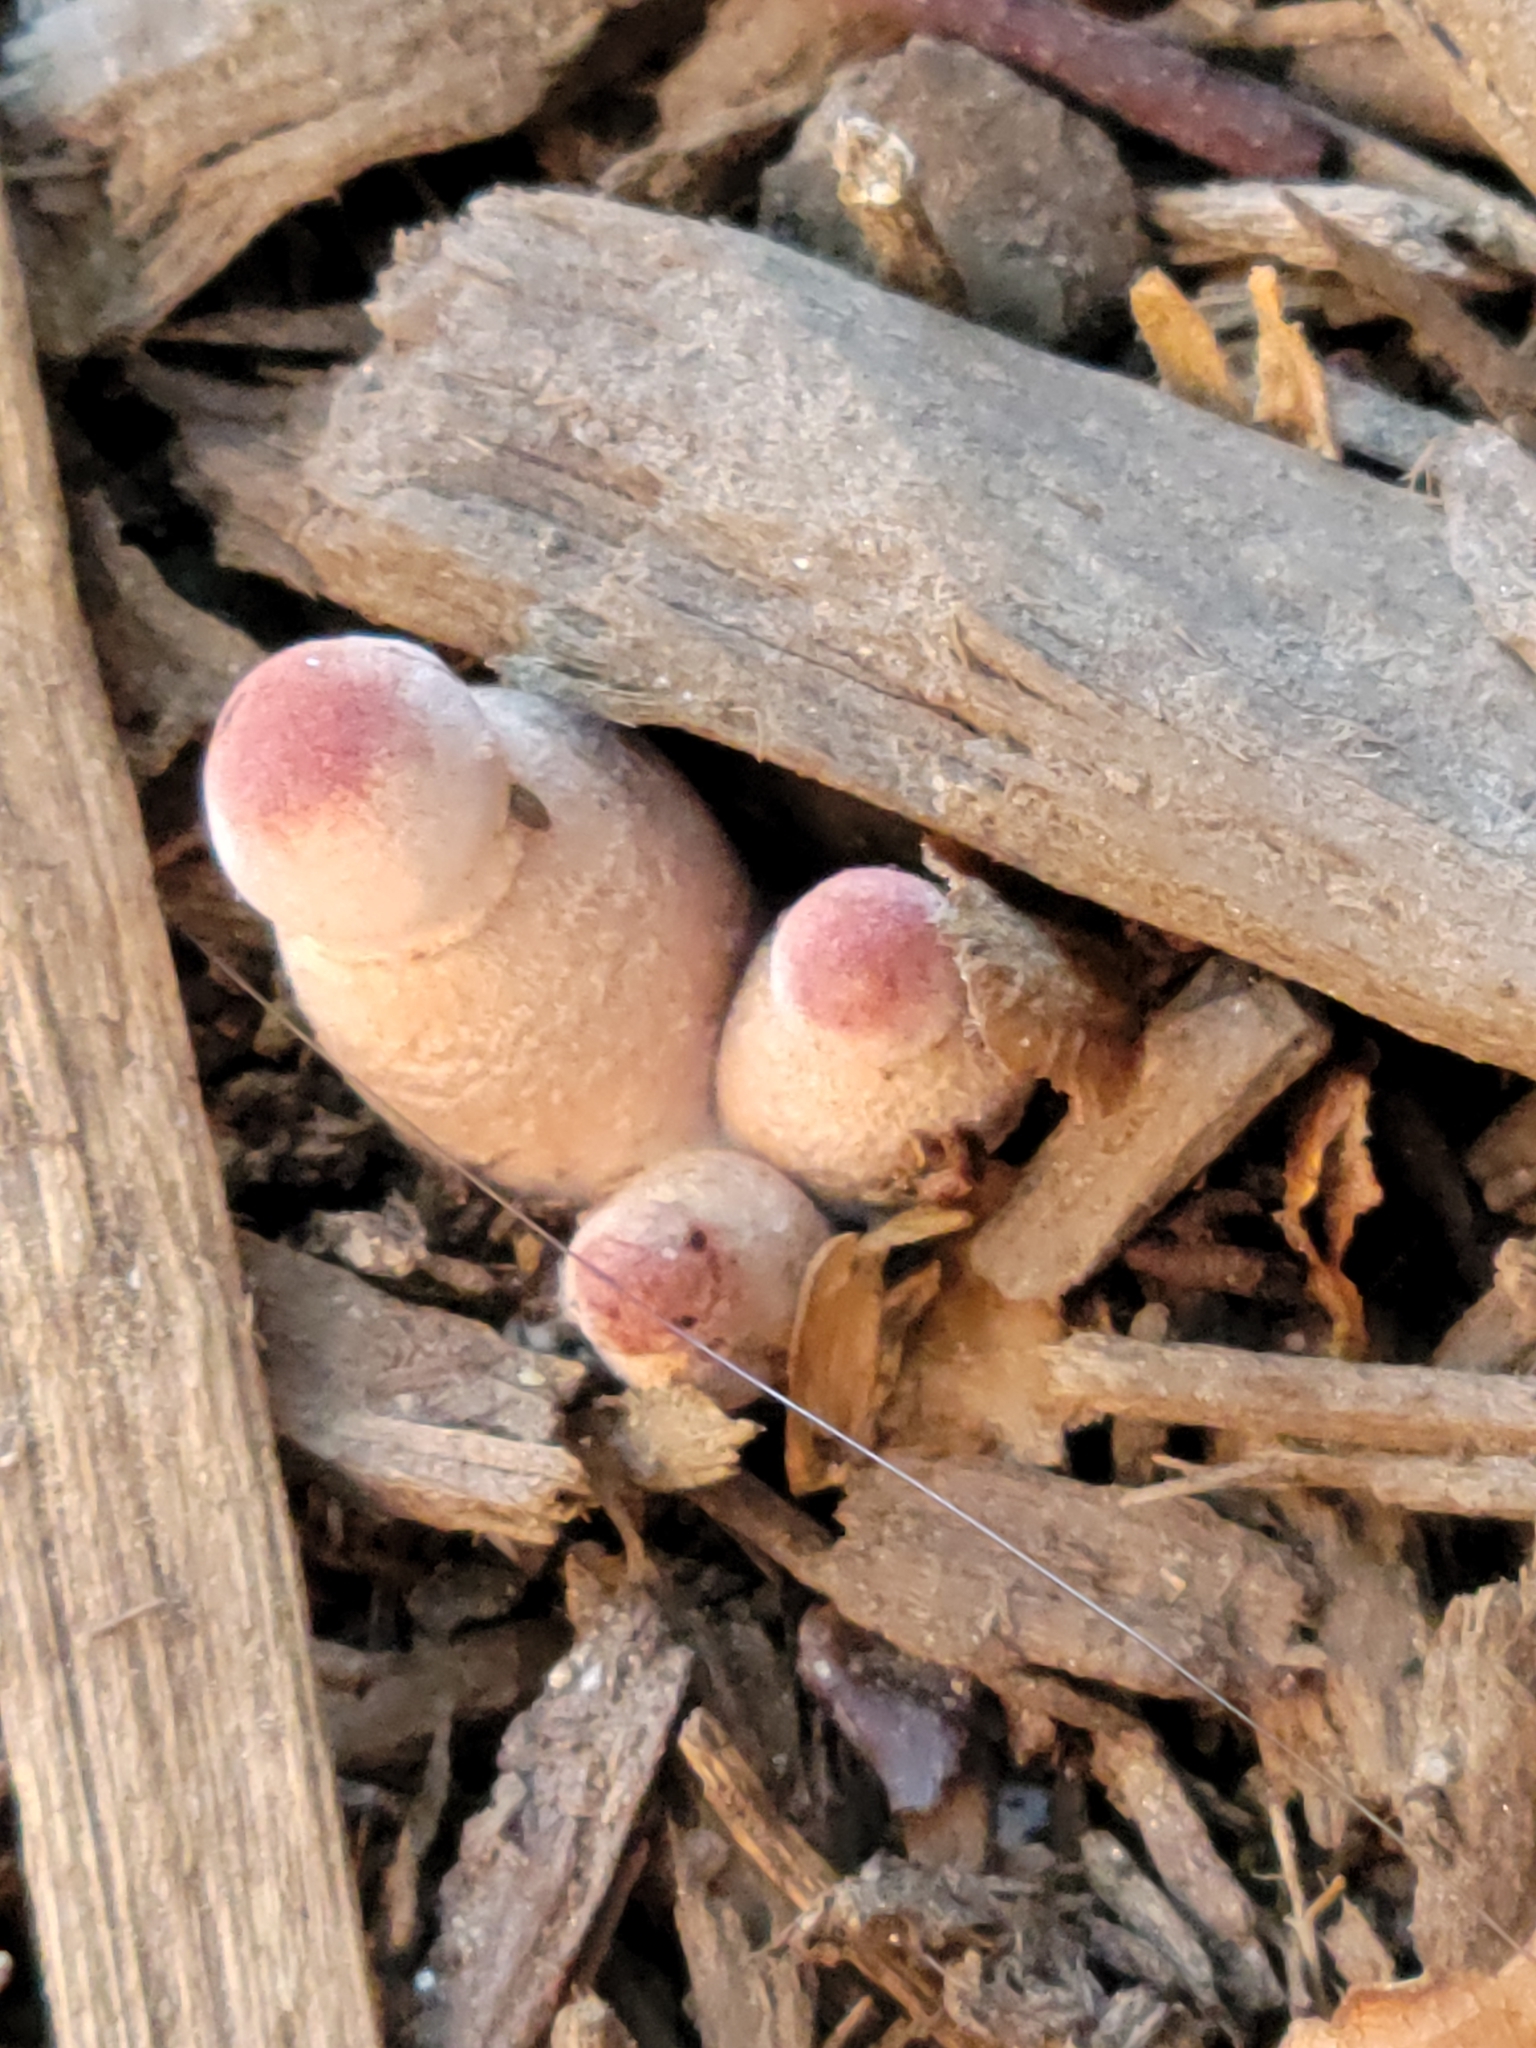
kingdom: Fungi
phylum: Basidiomycota
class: Agaricomycetes
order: Agaricales
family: Agaricaceae
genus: Leucoagaricus
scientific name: Leucoagaricus americanus
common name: Reddening lepiota
